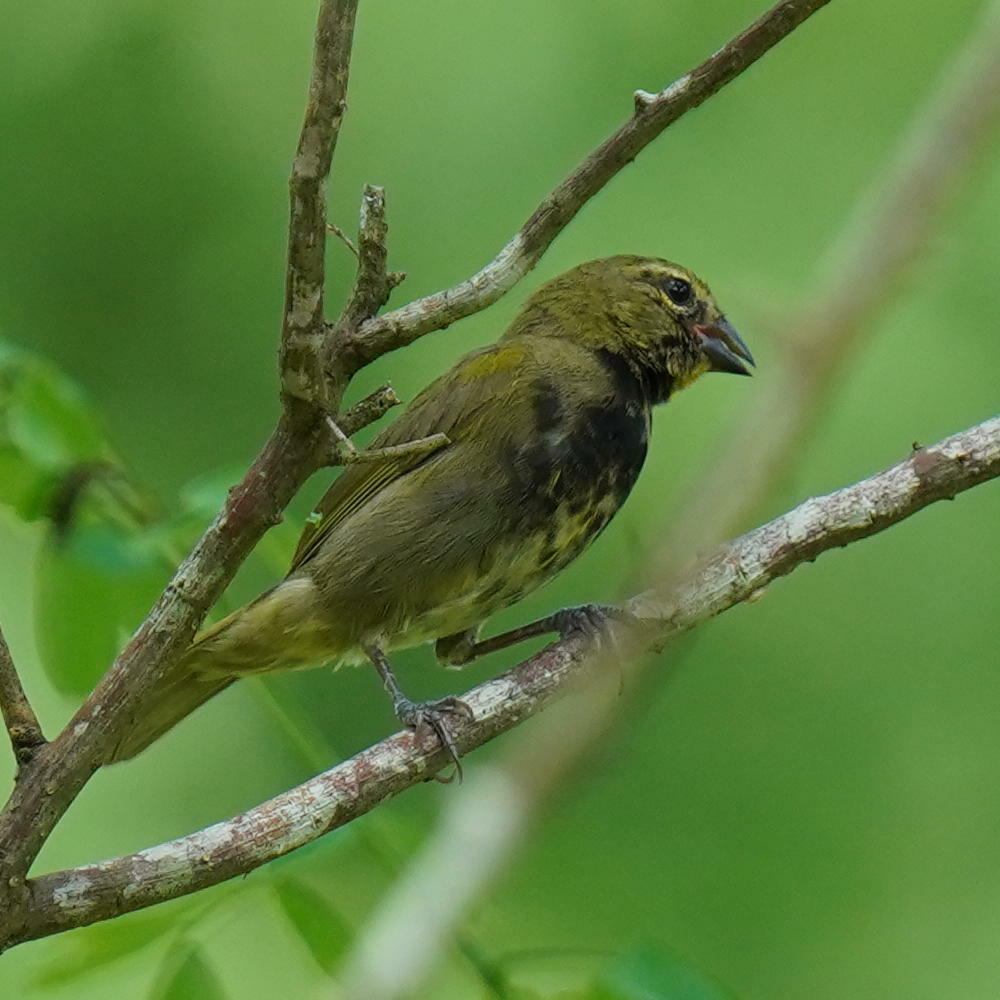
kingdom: Animalia
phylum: Chordata
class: Aves
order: Passeriformes
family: Thraupidae
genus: Tiaris
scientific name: Tiaris olivaceus
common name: Yellow-faced grassquit
